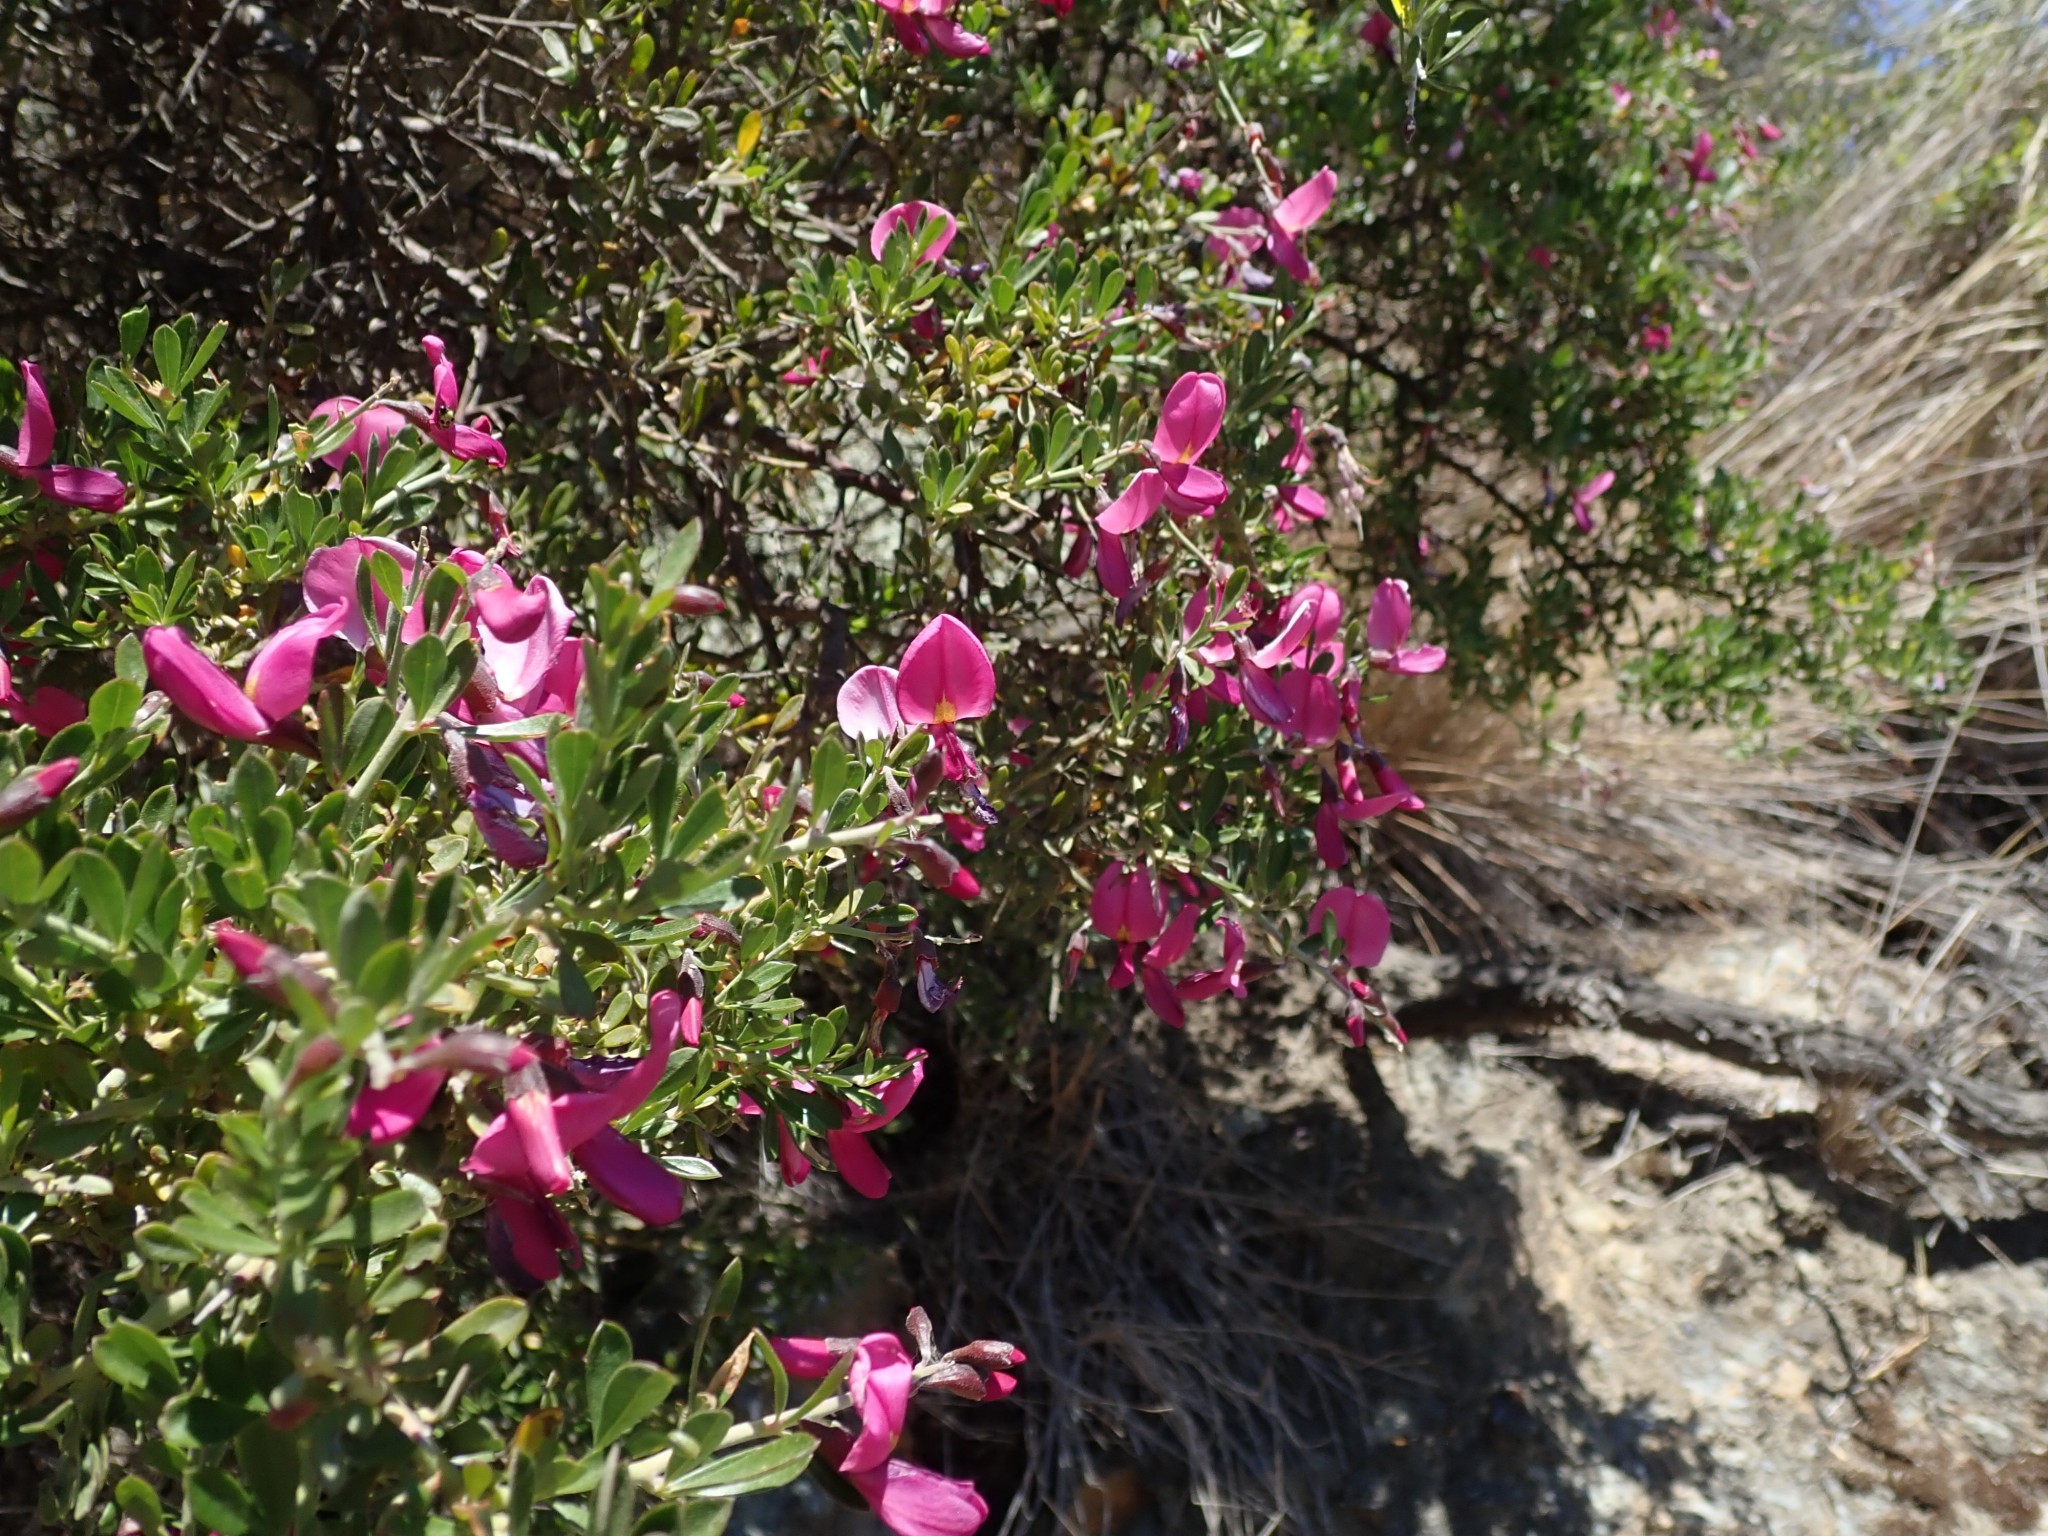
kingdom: Plantae
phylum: Tracheophyta
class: Magnoliopsida
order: Fabales
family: Fabaceae
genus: Pickeringia
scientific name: Pickeringia montana
